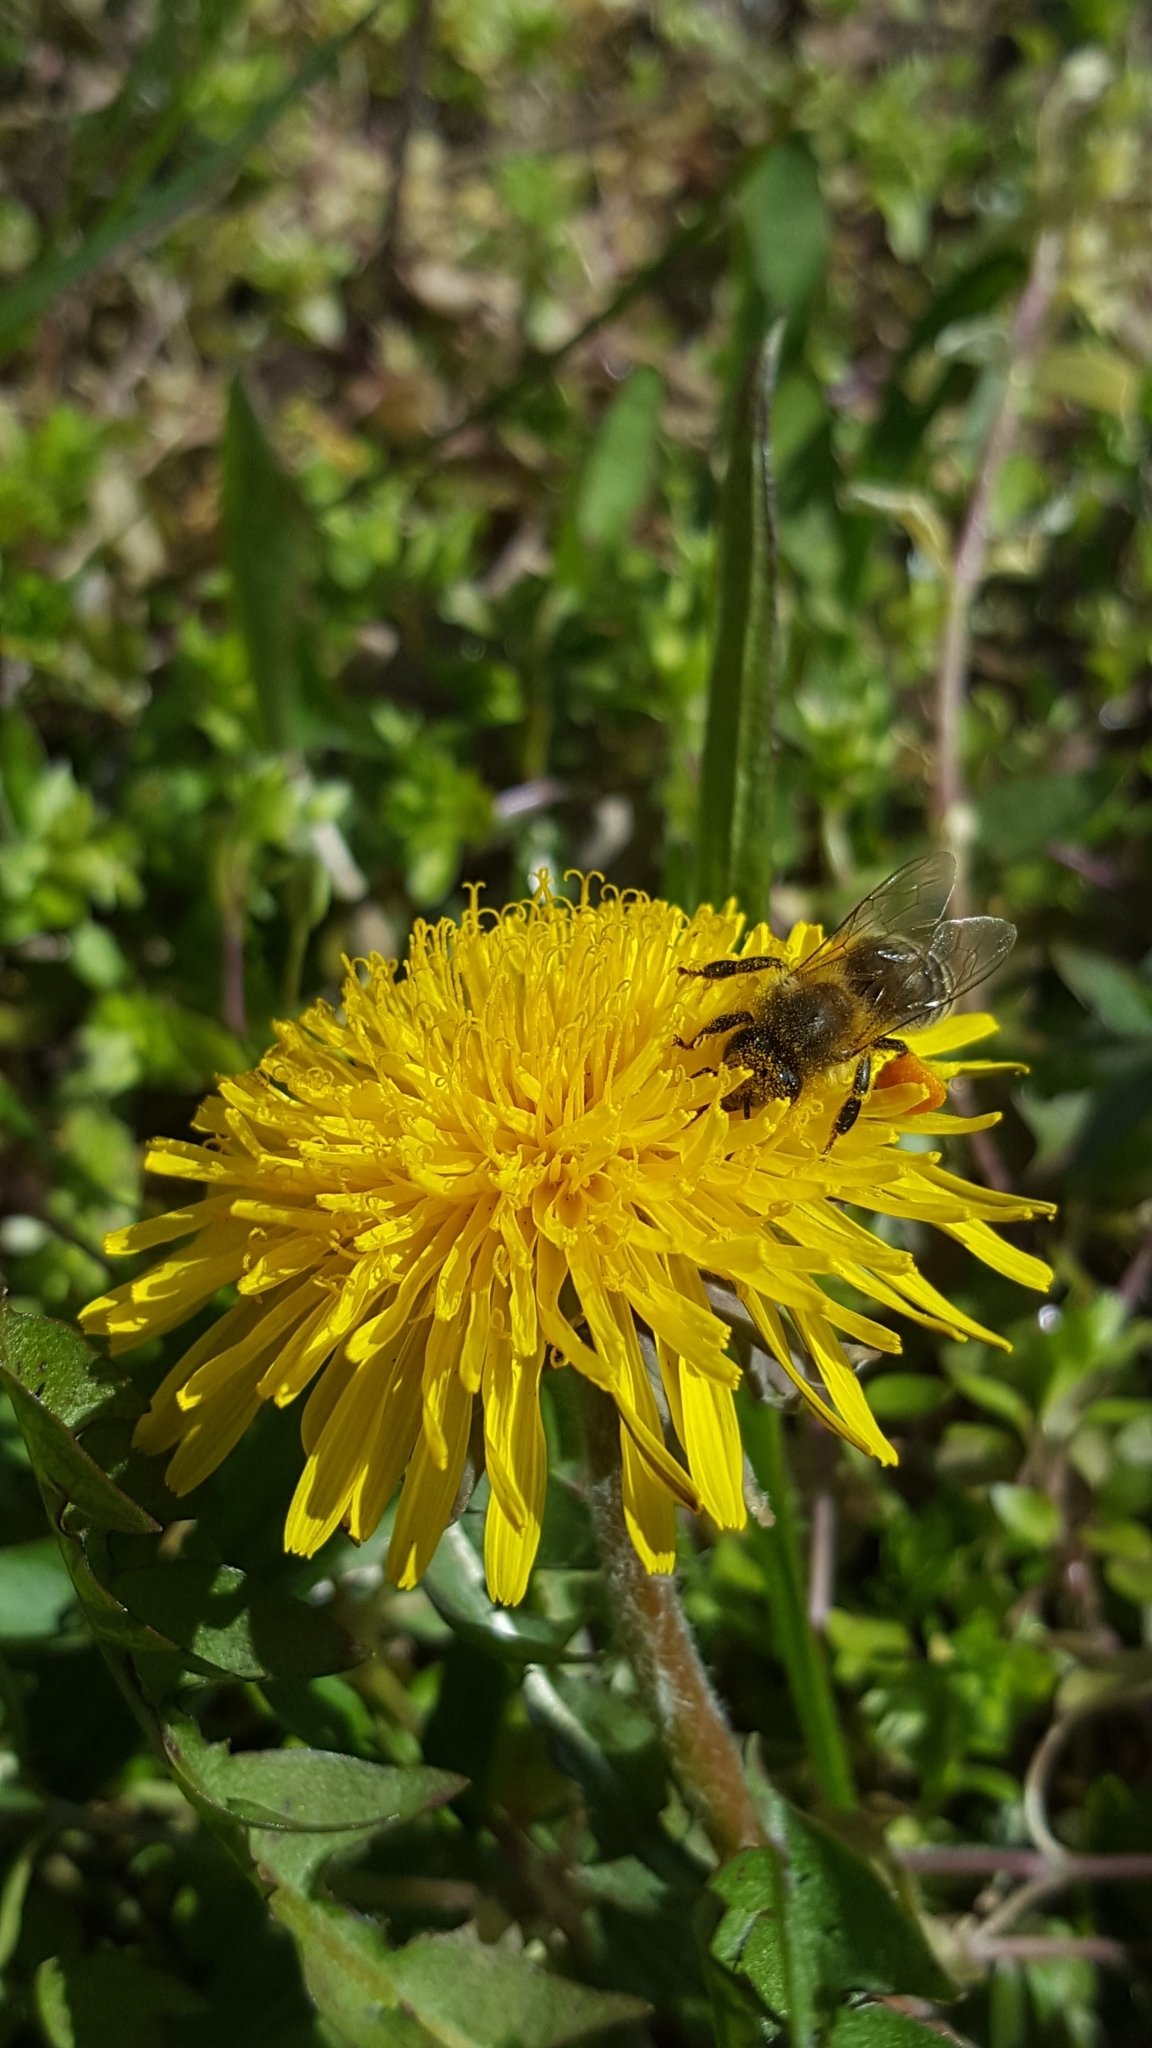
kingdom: Animalia
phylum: Arthropoda
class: Insecta
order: Hymenoptera
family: Apidae
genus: Apis
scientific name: Apis mellifera
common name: Honey bee
